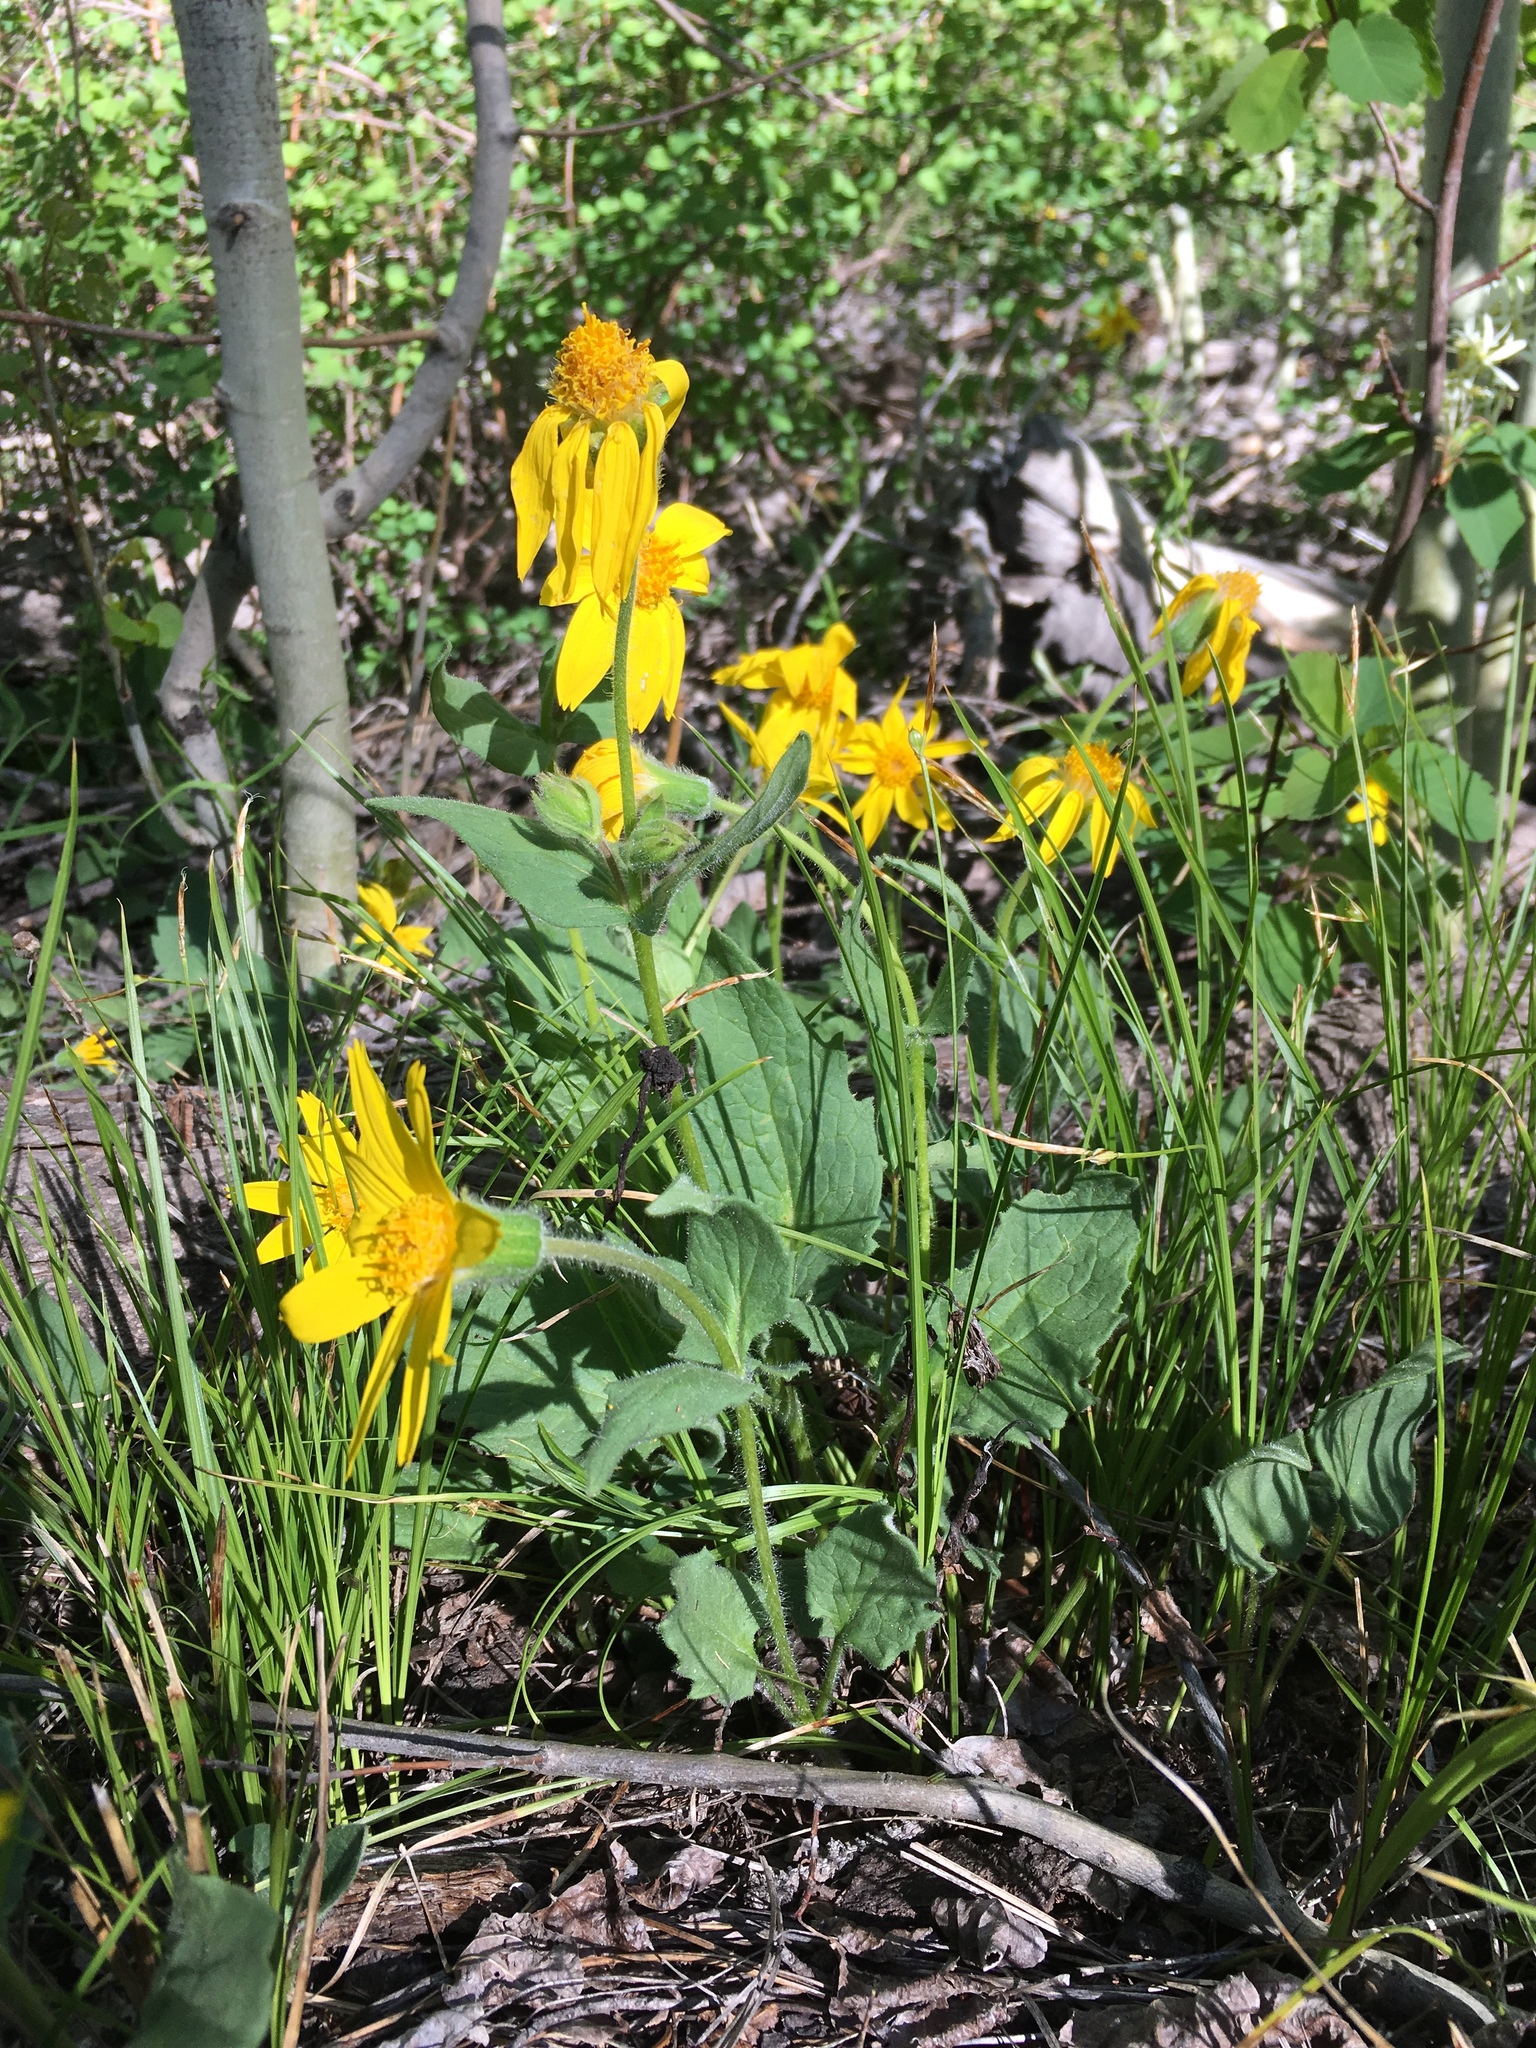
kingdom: Plantae
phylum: Tracheophyta
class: Magnoliopsida
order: Asterales
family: Asteraceae
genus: Arnica
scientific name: Arnica cordifolia
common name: Heart-leaf arnica
